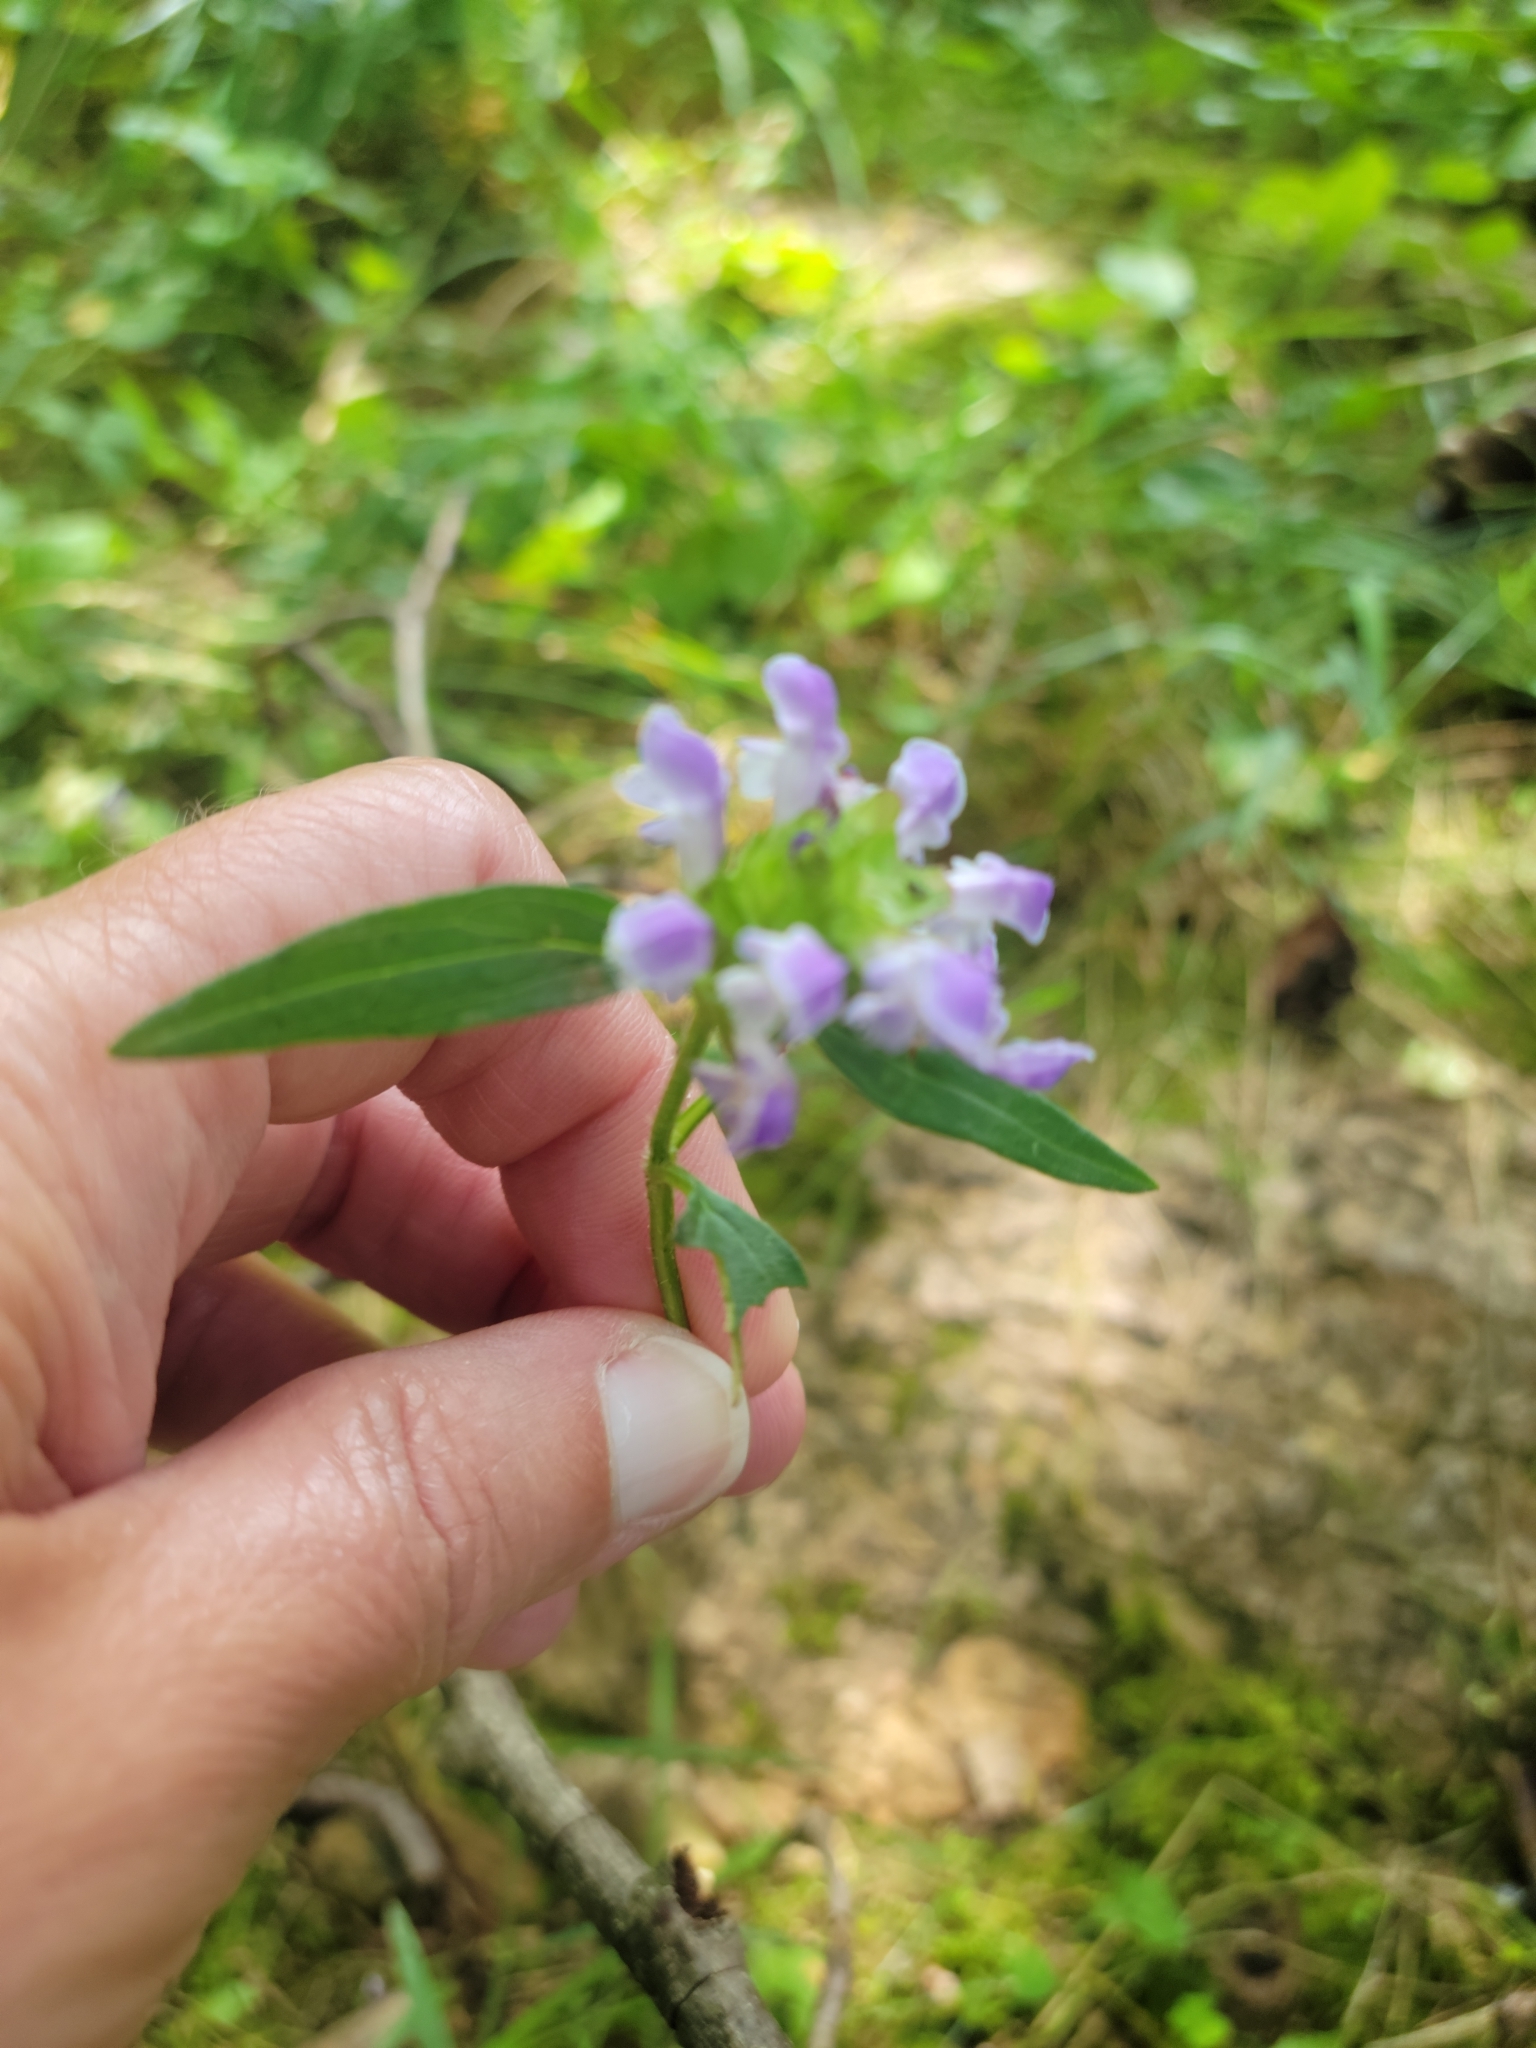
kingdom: Plantae
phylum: Tracheophyta
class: Magnoliopsida
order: Lamiales
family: Lamiaceae
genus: Prunella
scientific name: Prunella vulgaris
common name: Heal-all
